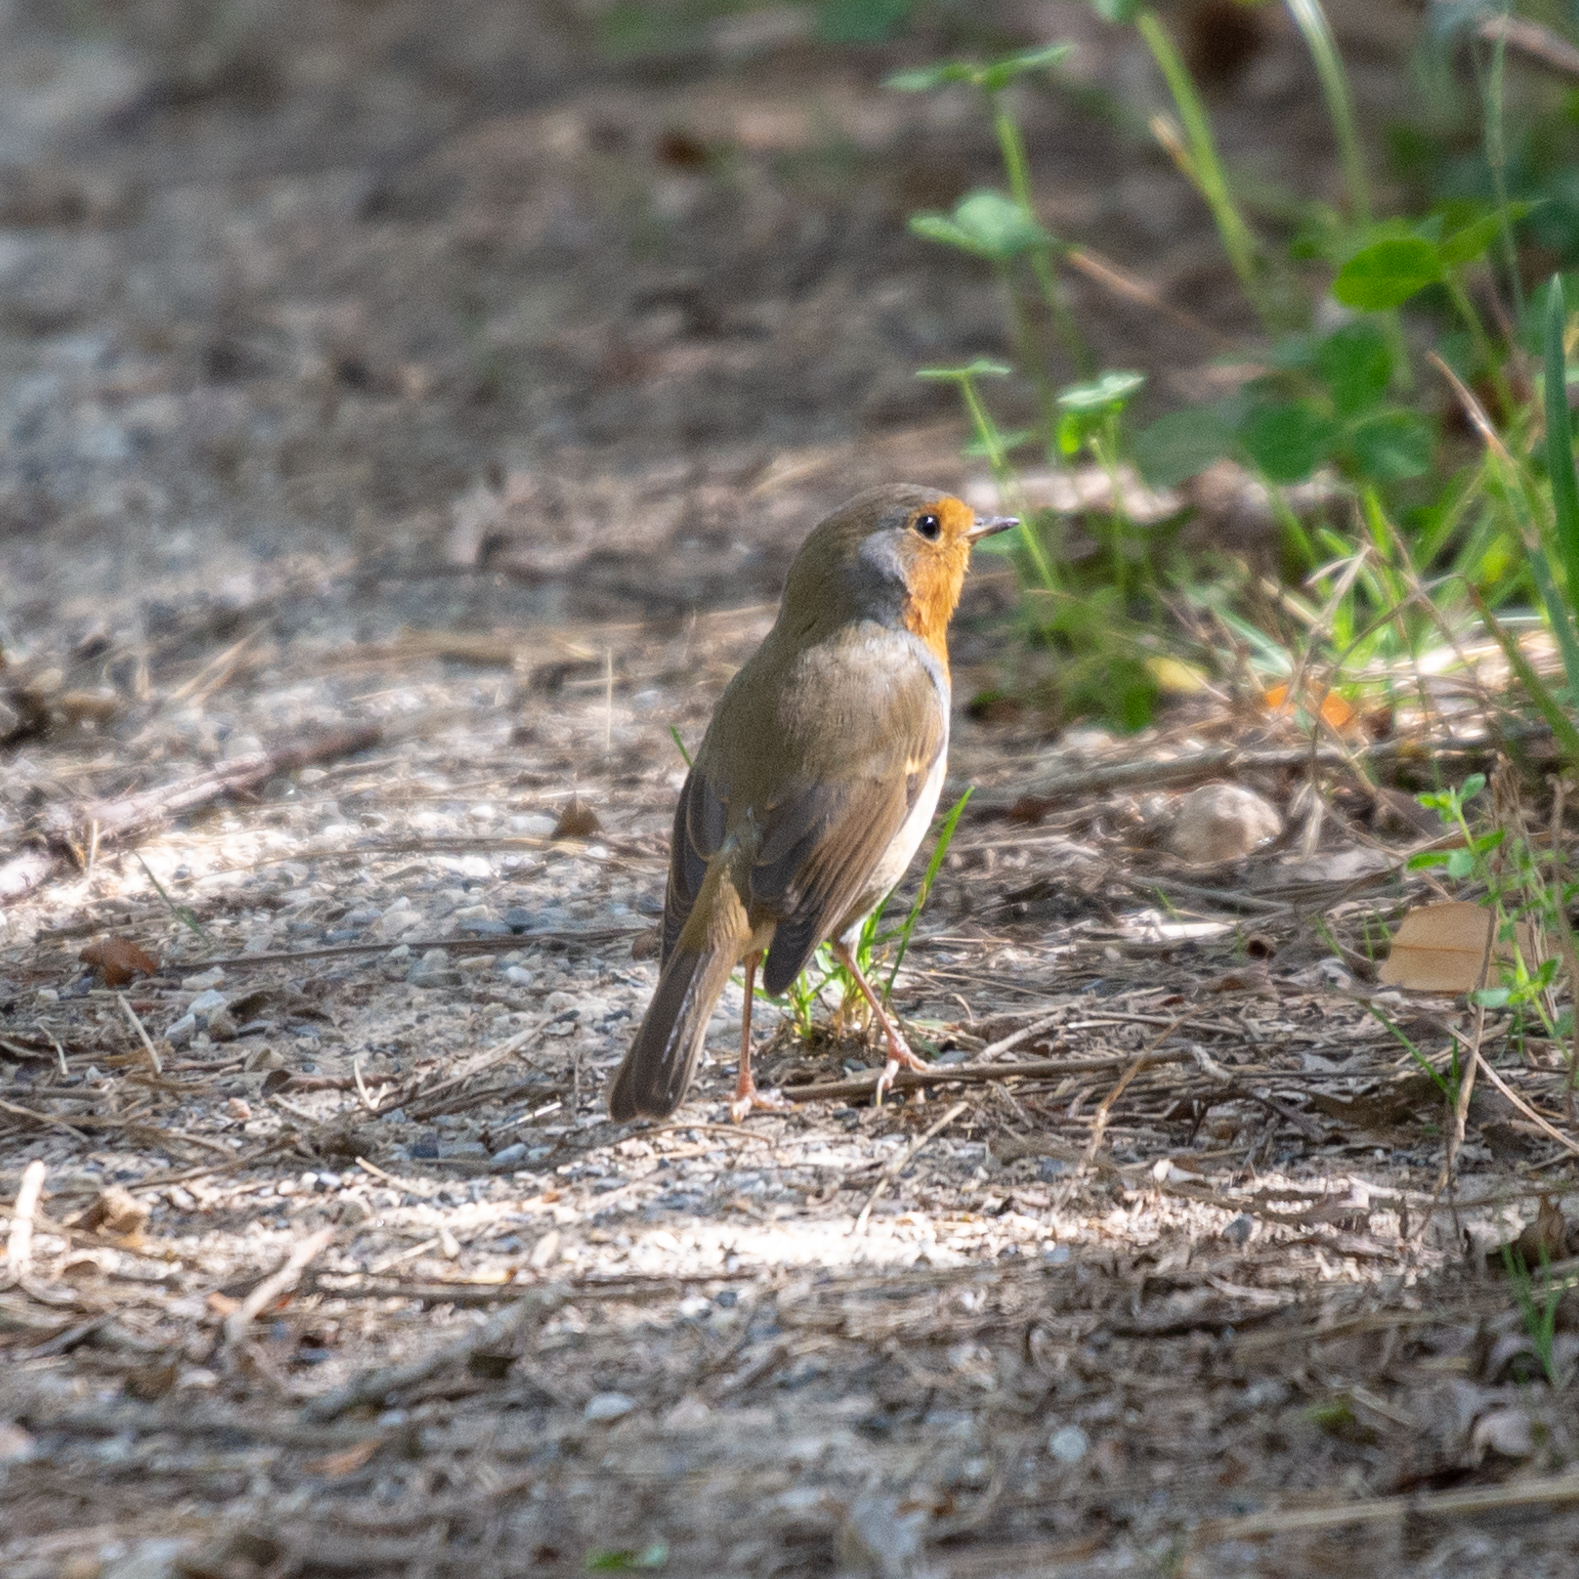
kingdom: Animalia
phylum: Chordata
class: Aves
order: Passeriformes
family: Muscicapidae
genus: Erithacus
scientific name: Erithacus rubecula
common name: European robin
